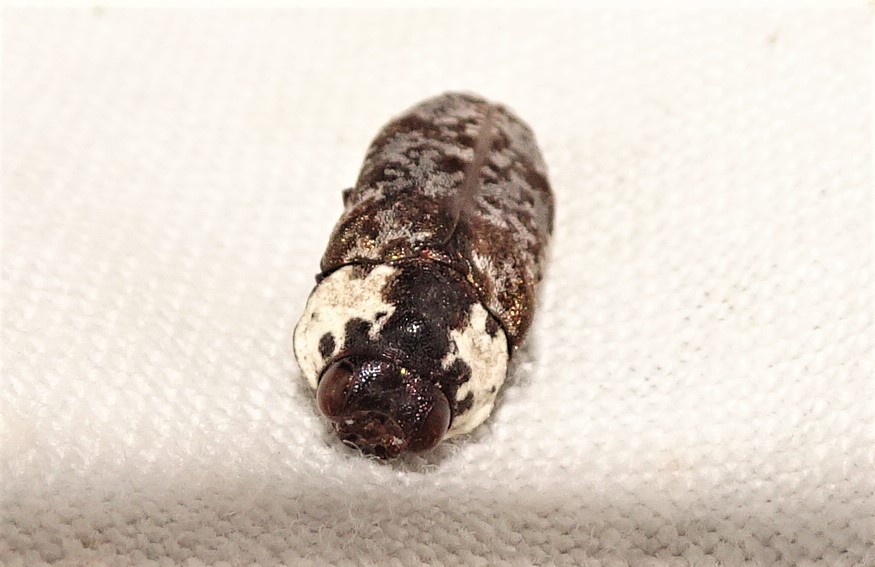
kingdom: Animalia
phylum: Arthropoda
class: Insecta
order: Coleoptera
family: Buprestidae
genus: Hypocisseis
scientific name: Hypocisseis pilosicollis
